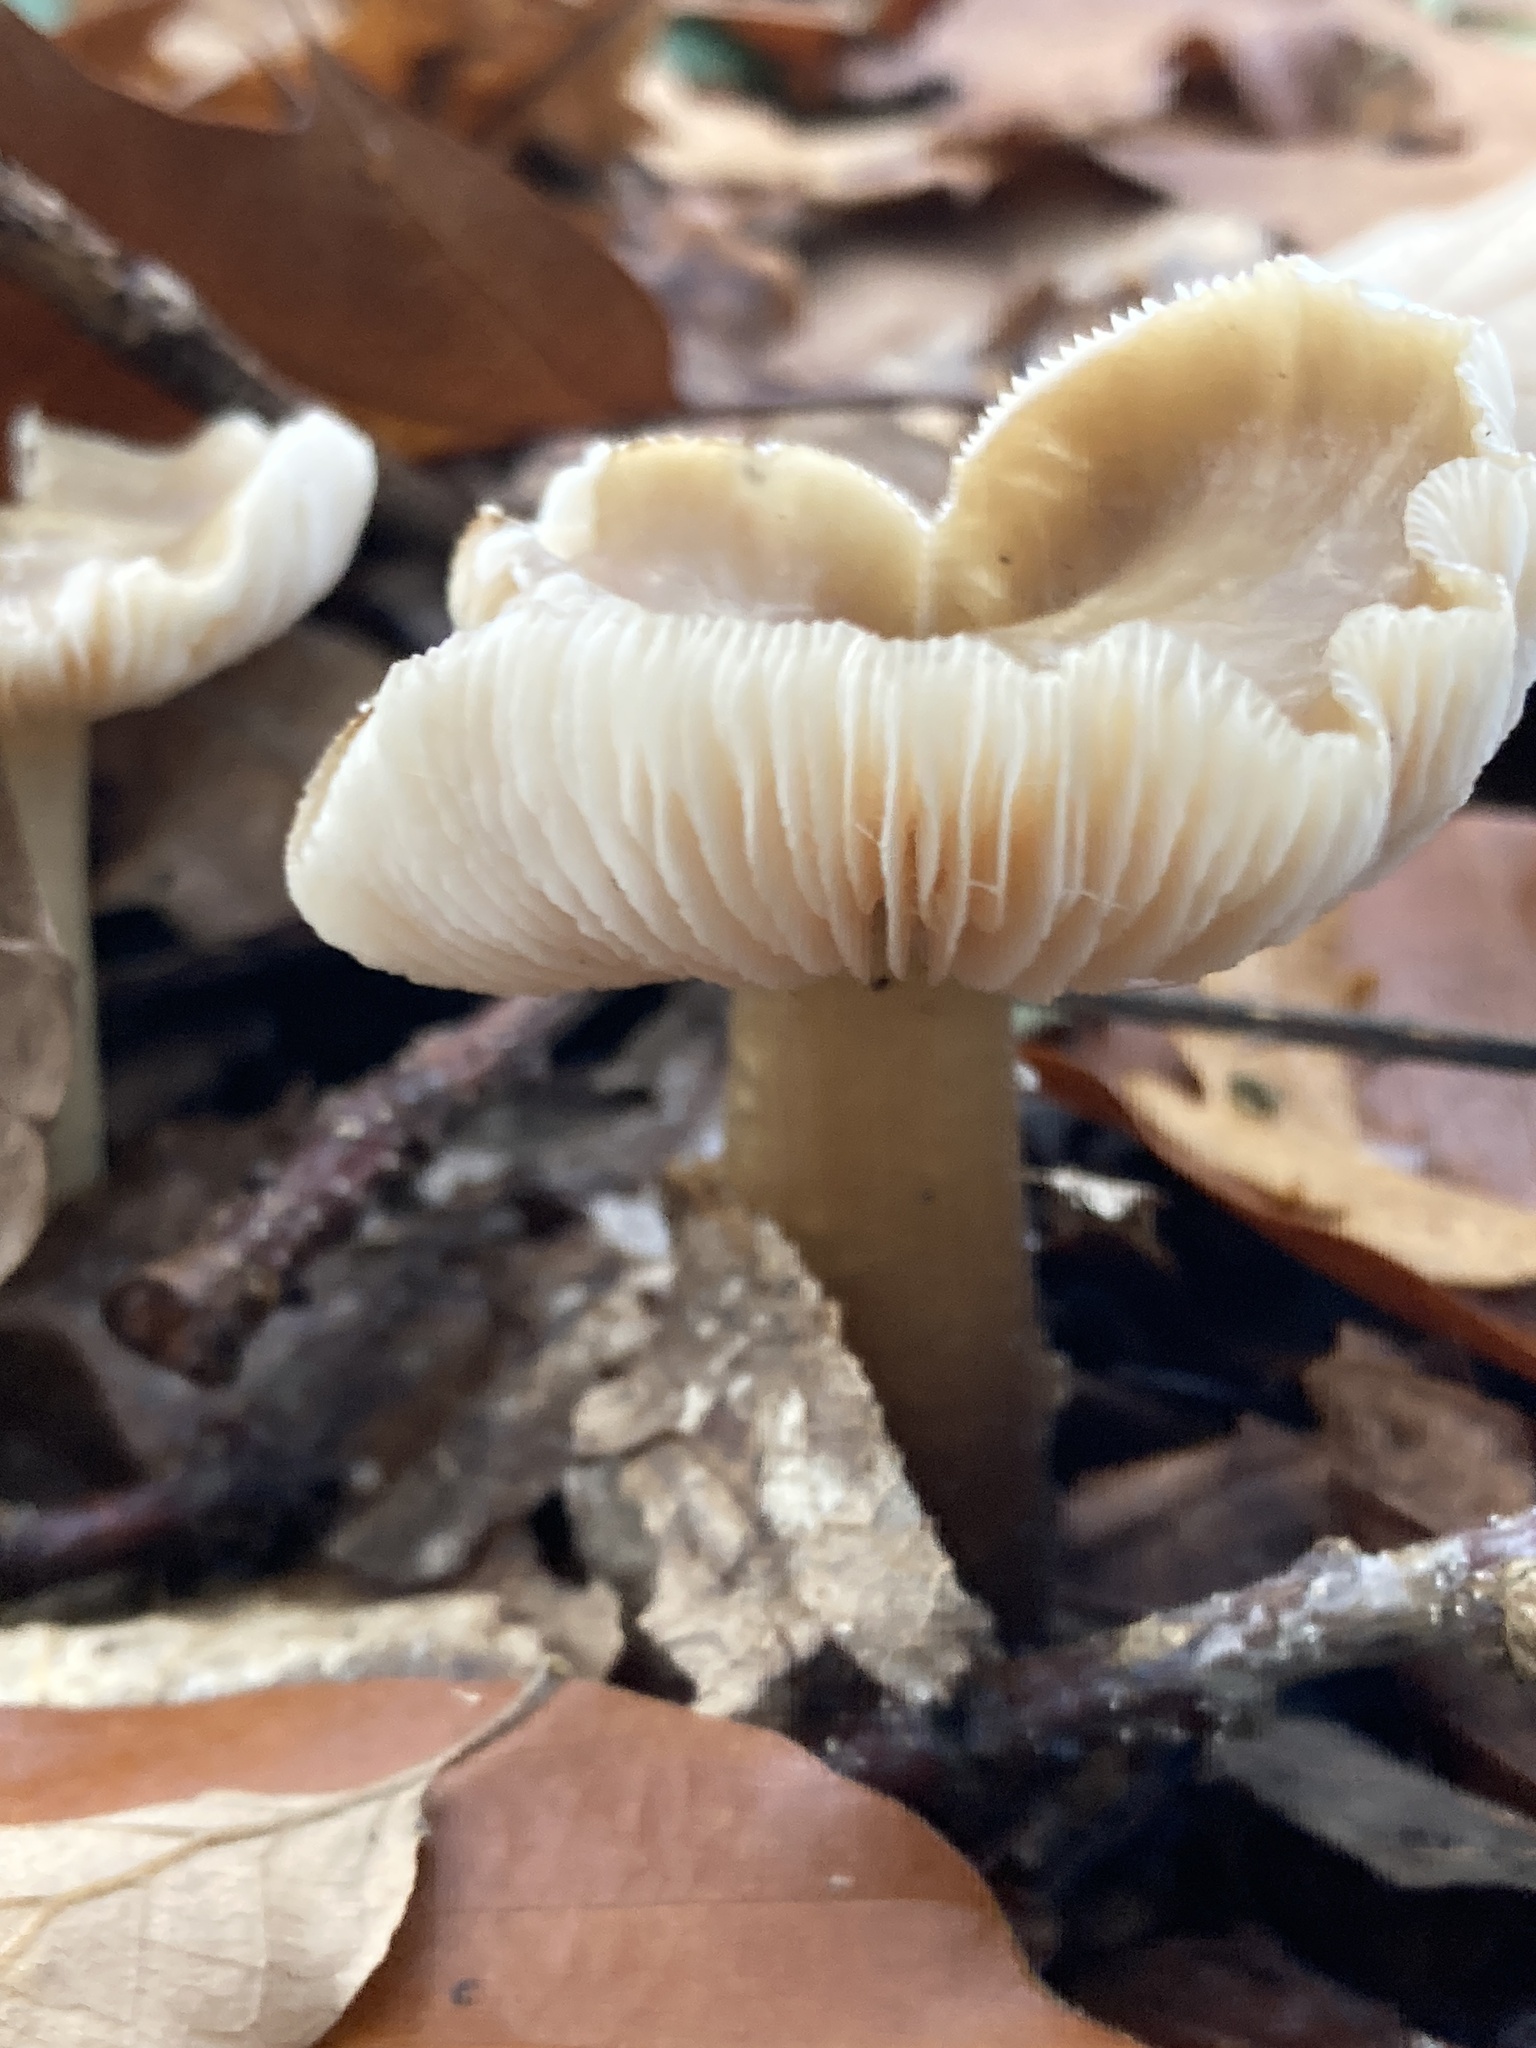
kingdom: Fungi
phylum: Basidiomycota
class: Agaricomycetes
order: Agaricales
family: Omphalotaceae
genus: Rhodocollybia
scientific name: Rhodocollybia butyracea
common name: Butter cap
